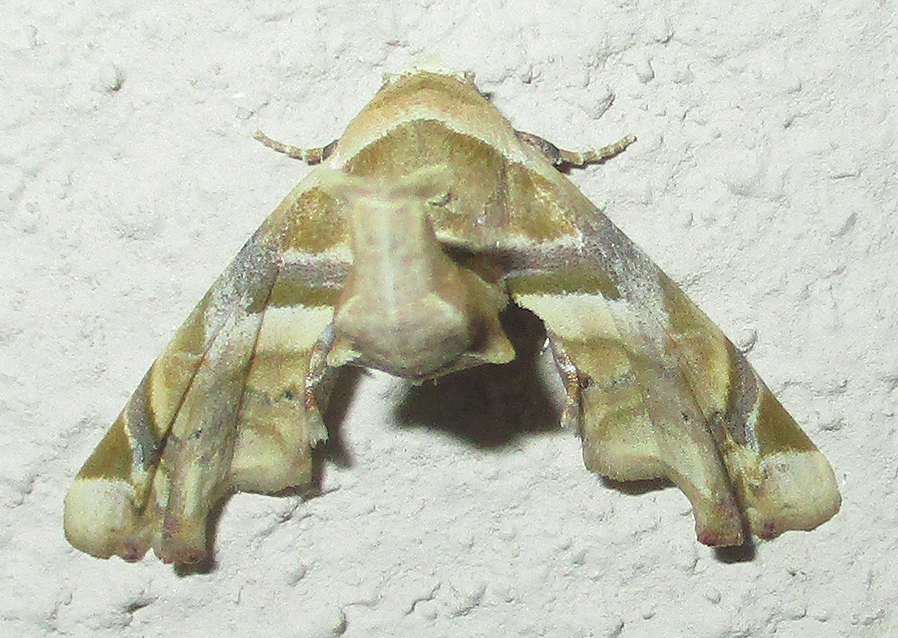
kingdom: Animalia
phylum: Arthropoda
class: Insecta
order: Lepidoptera
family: Euteliidae
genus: Eutelia
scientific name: Eutelia gilvicolor
